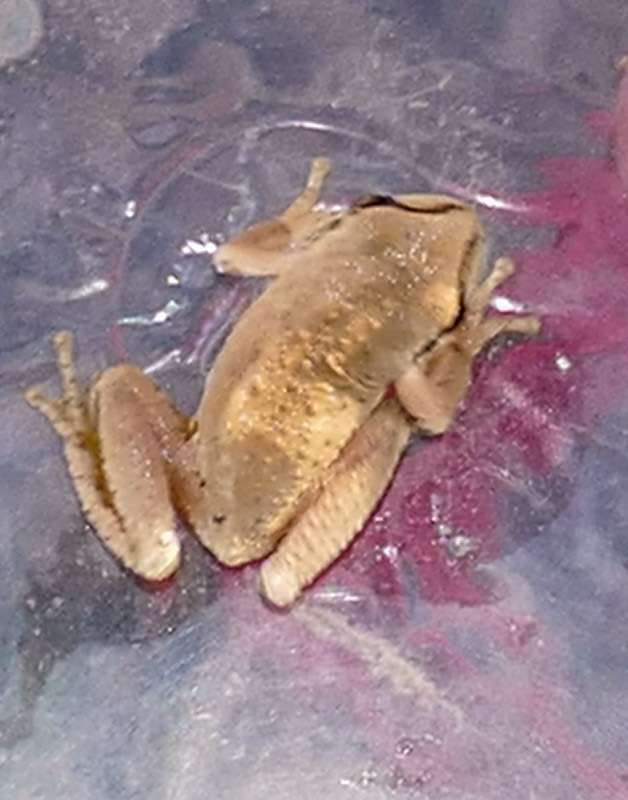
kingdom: Animalia
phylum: Chordata
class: Amphibia
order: Anura
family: Hylidae
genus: Pseudacris
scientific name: Pseudacris regilla
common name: Pacific chorus frog
